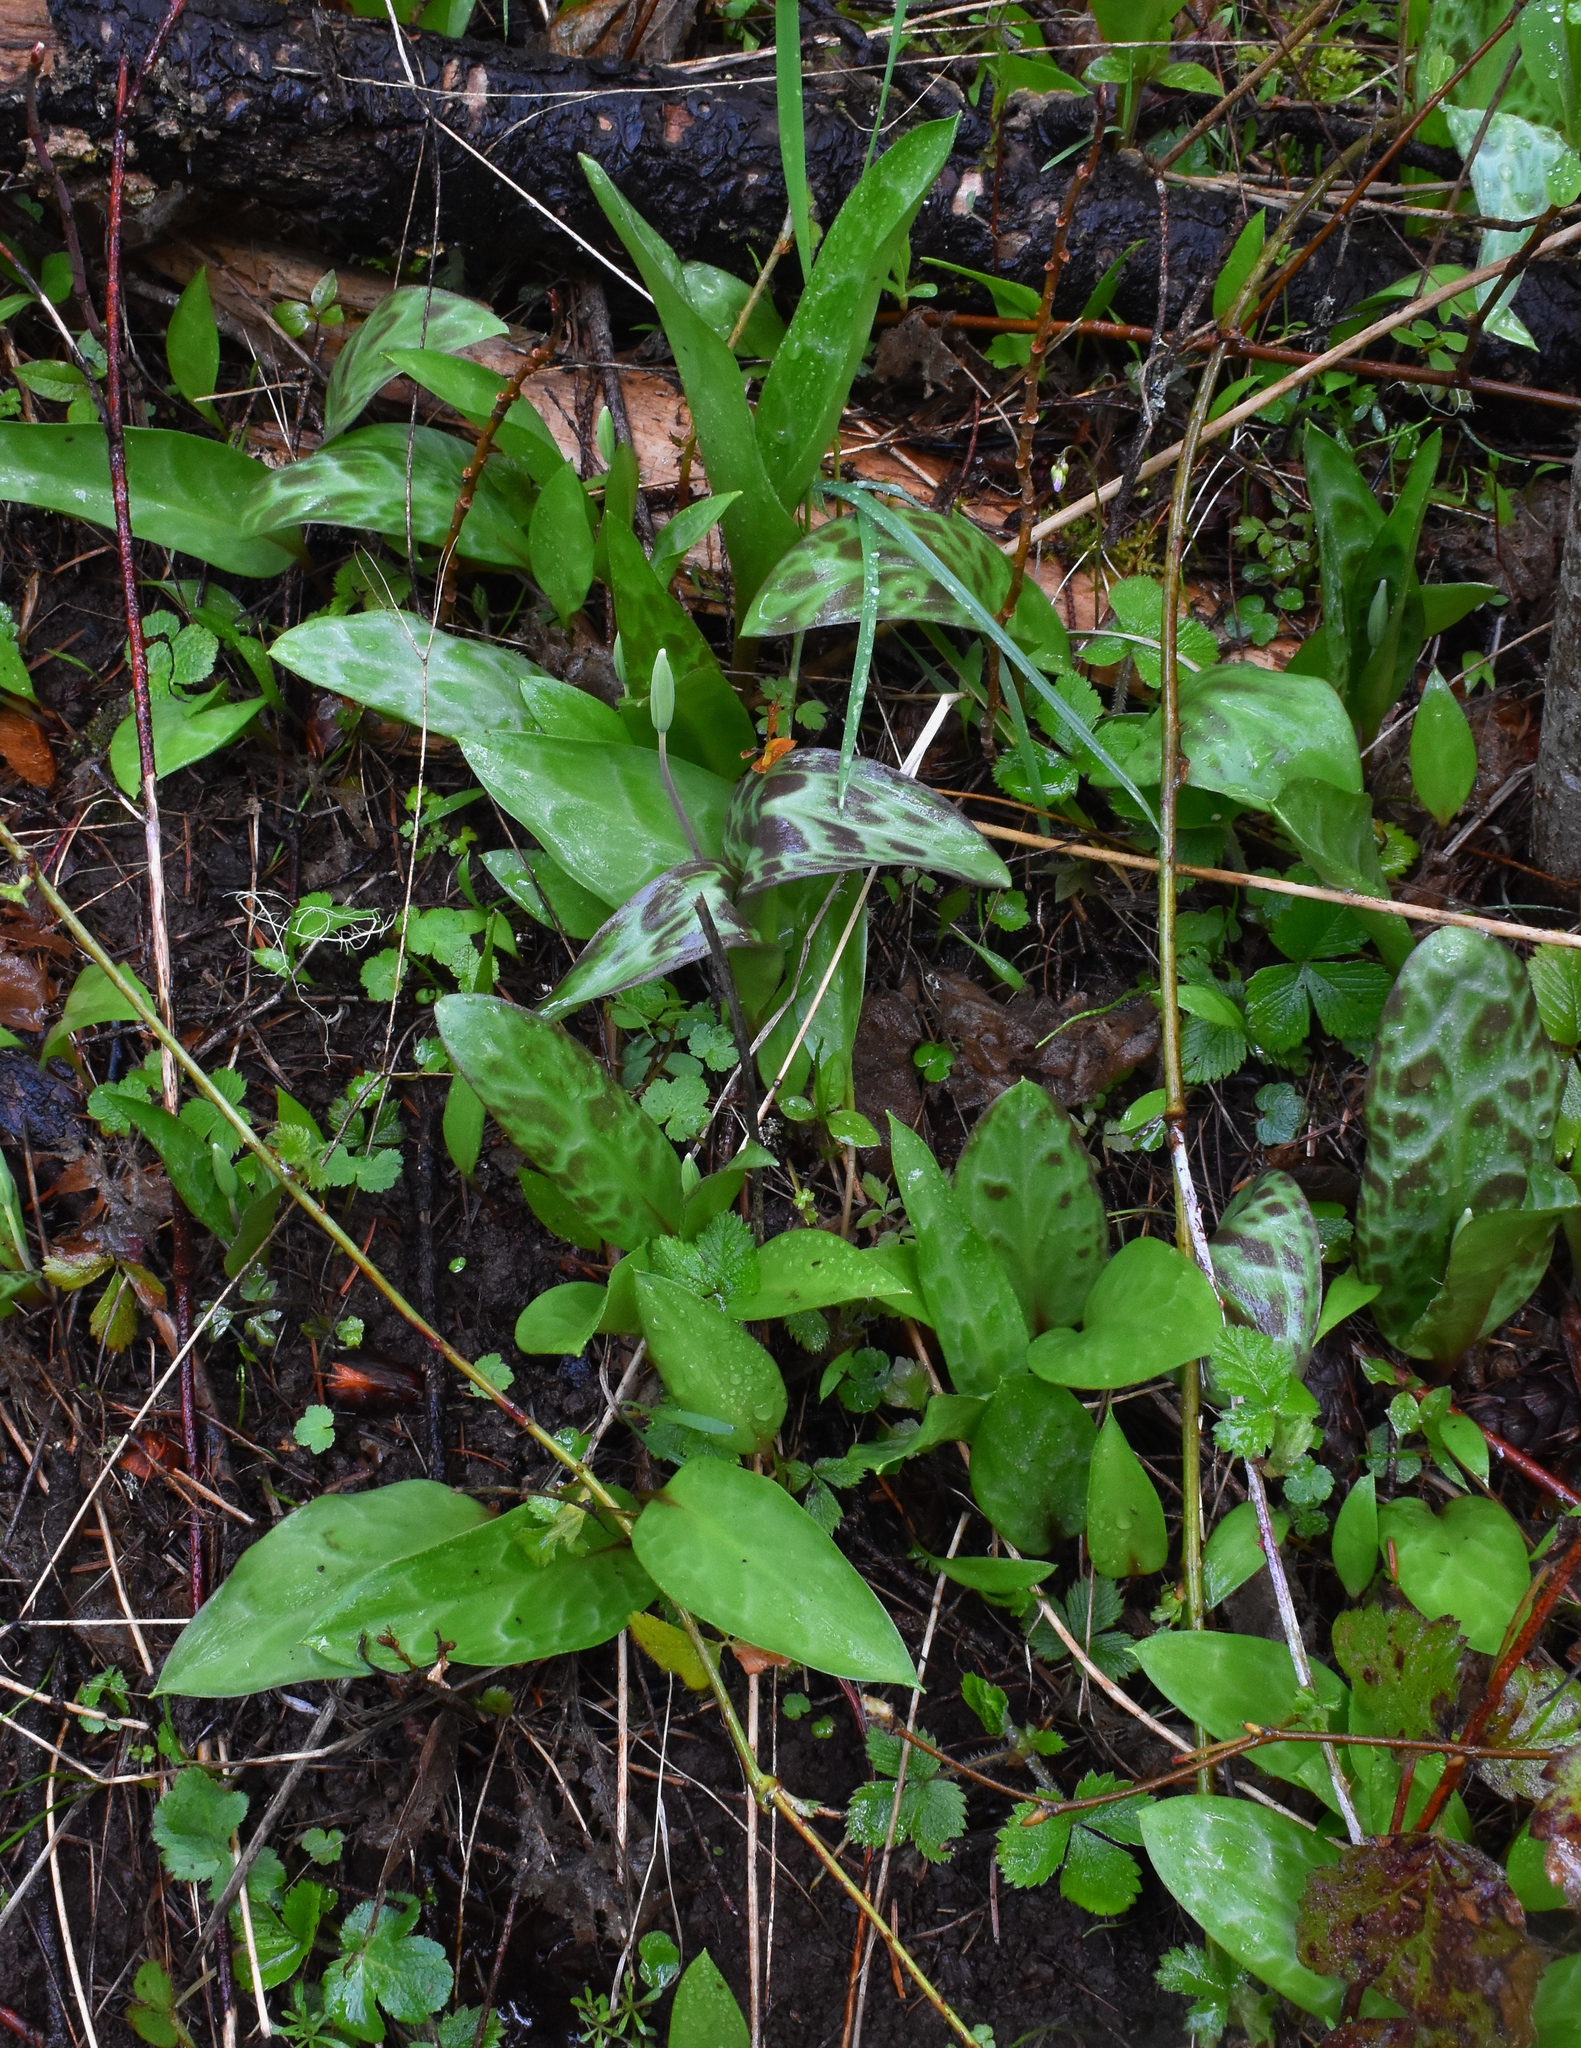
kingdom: Plantae
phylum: Tracheophyta
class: Liliopsida
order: Liliales
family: Liliaceae
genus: Erythronium
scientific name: Erythronium oregonum
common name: Giant adder's-tongue
